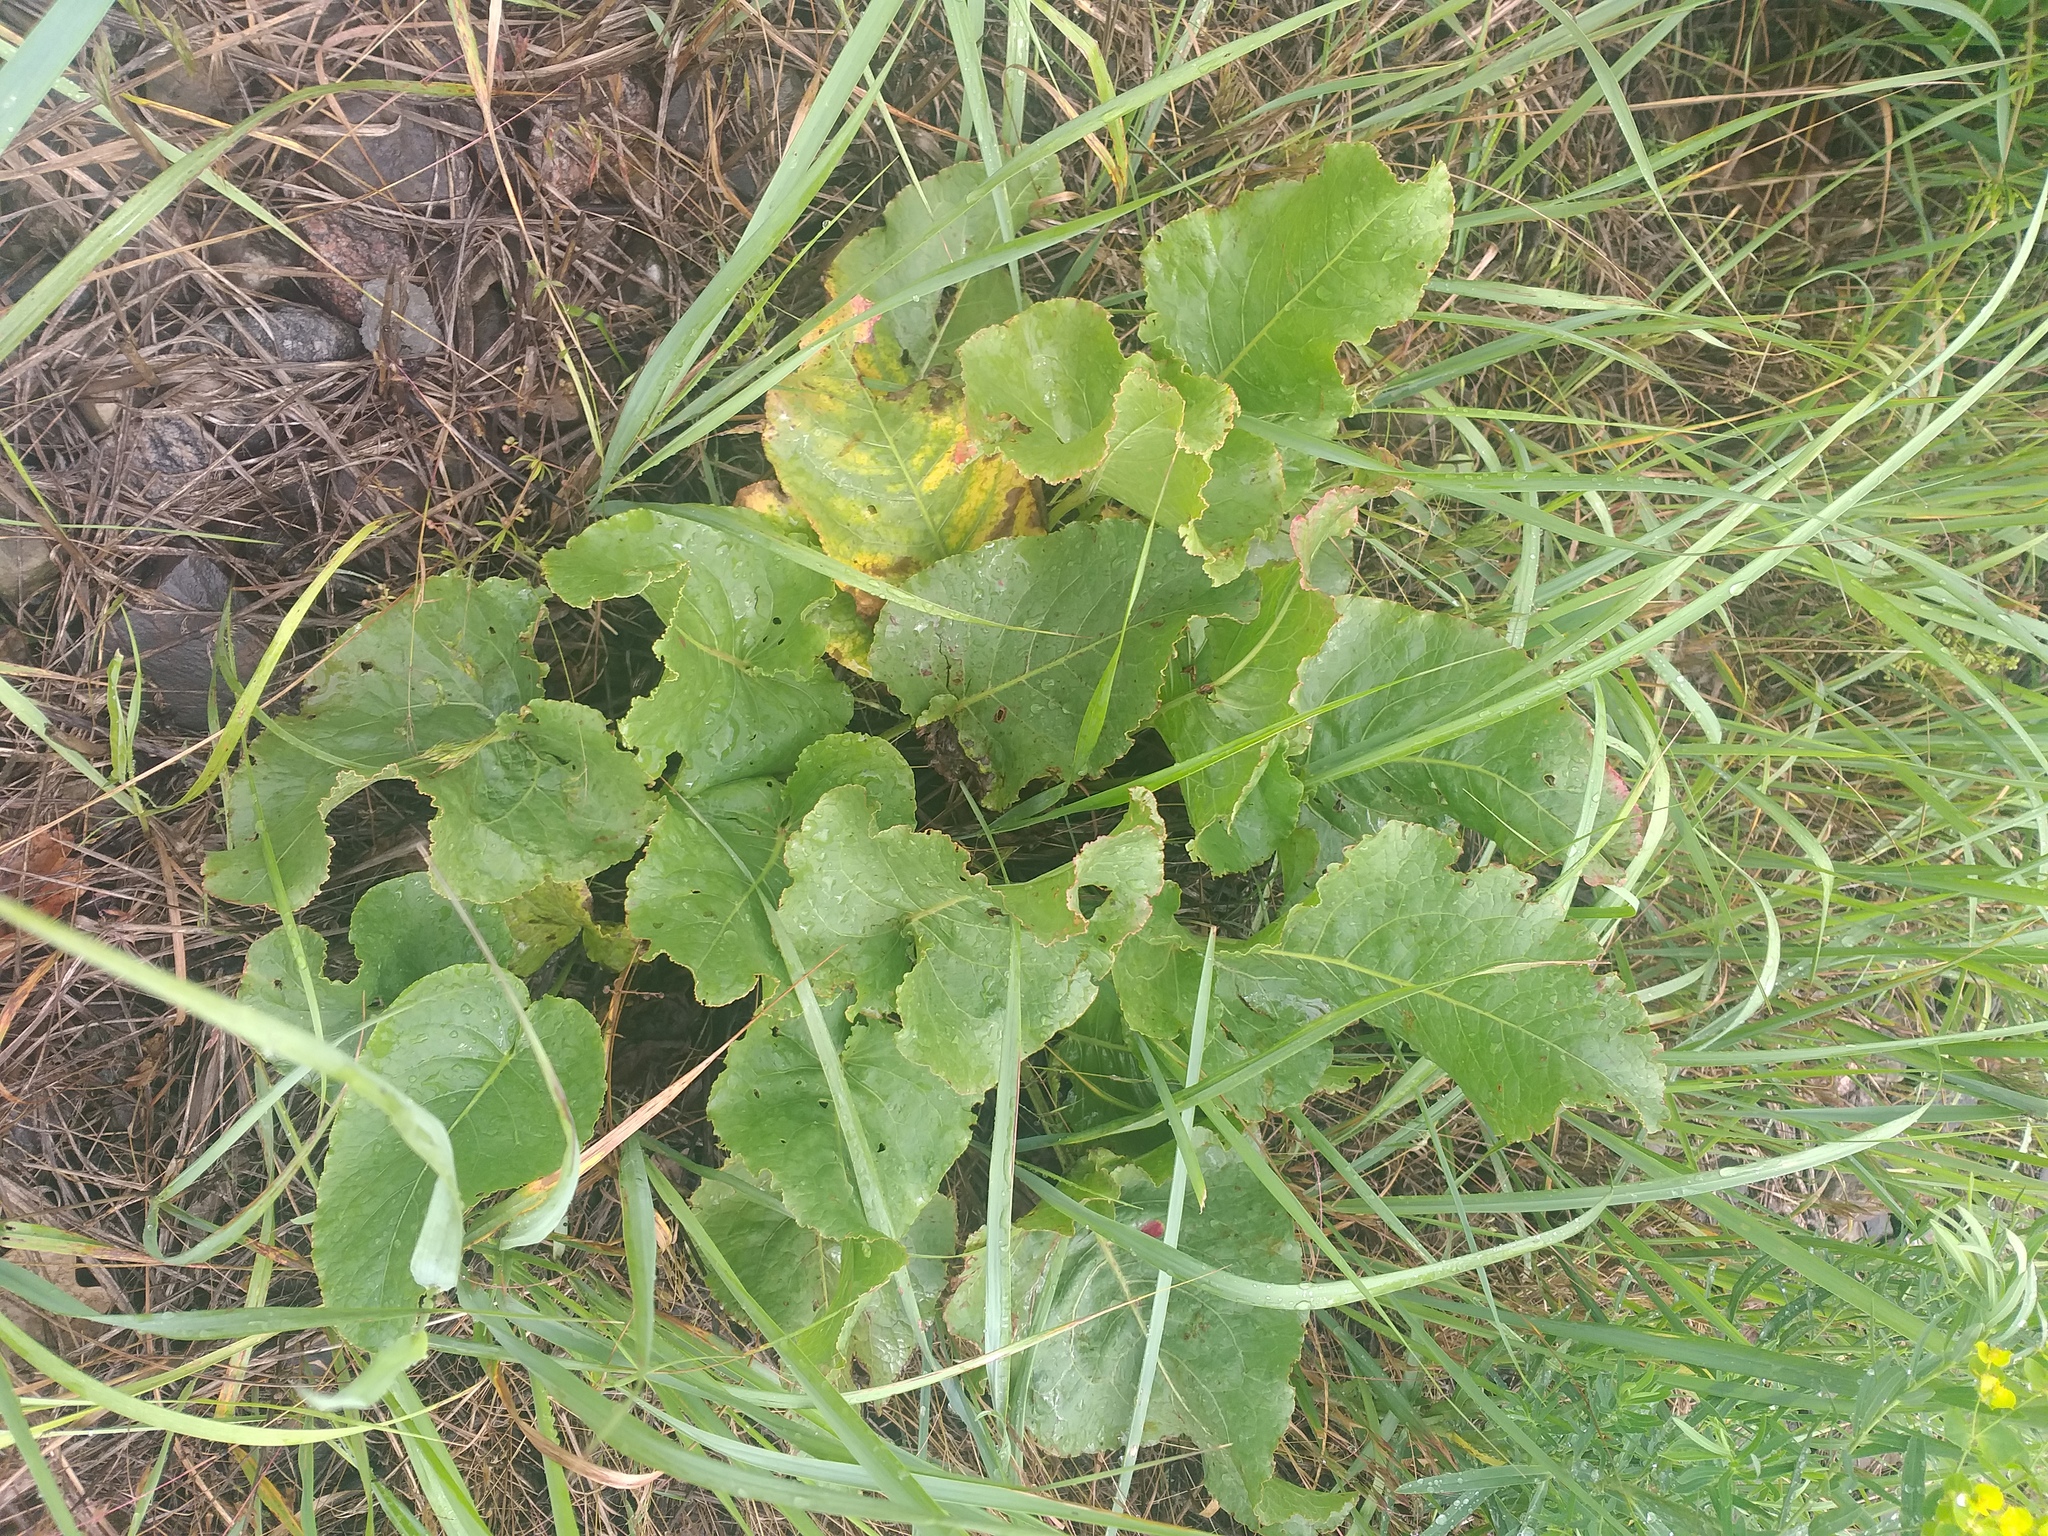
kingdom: Plantae
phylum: Tracheophyta
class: Magnoliopsida
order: Caryophyllales
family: Polygonaceae
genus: Rumex
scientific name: Rumex confertus
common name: Russian dock
